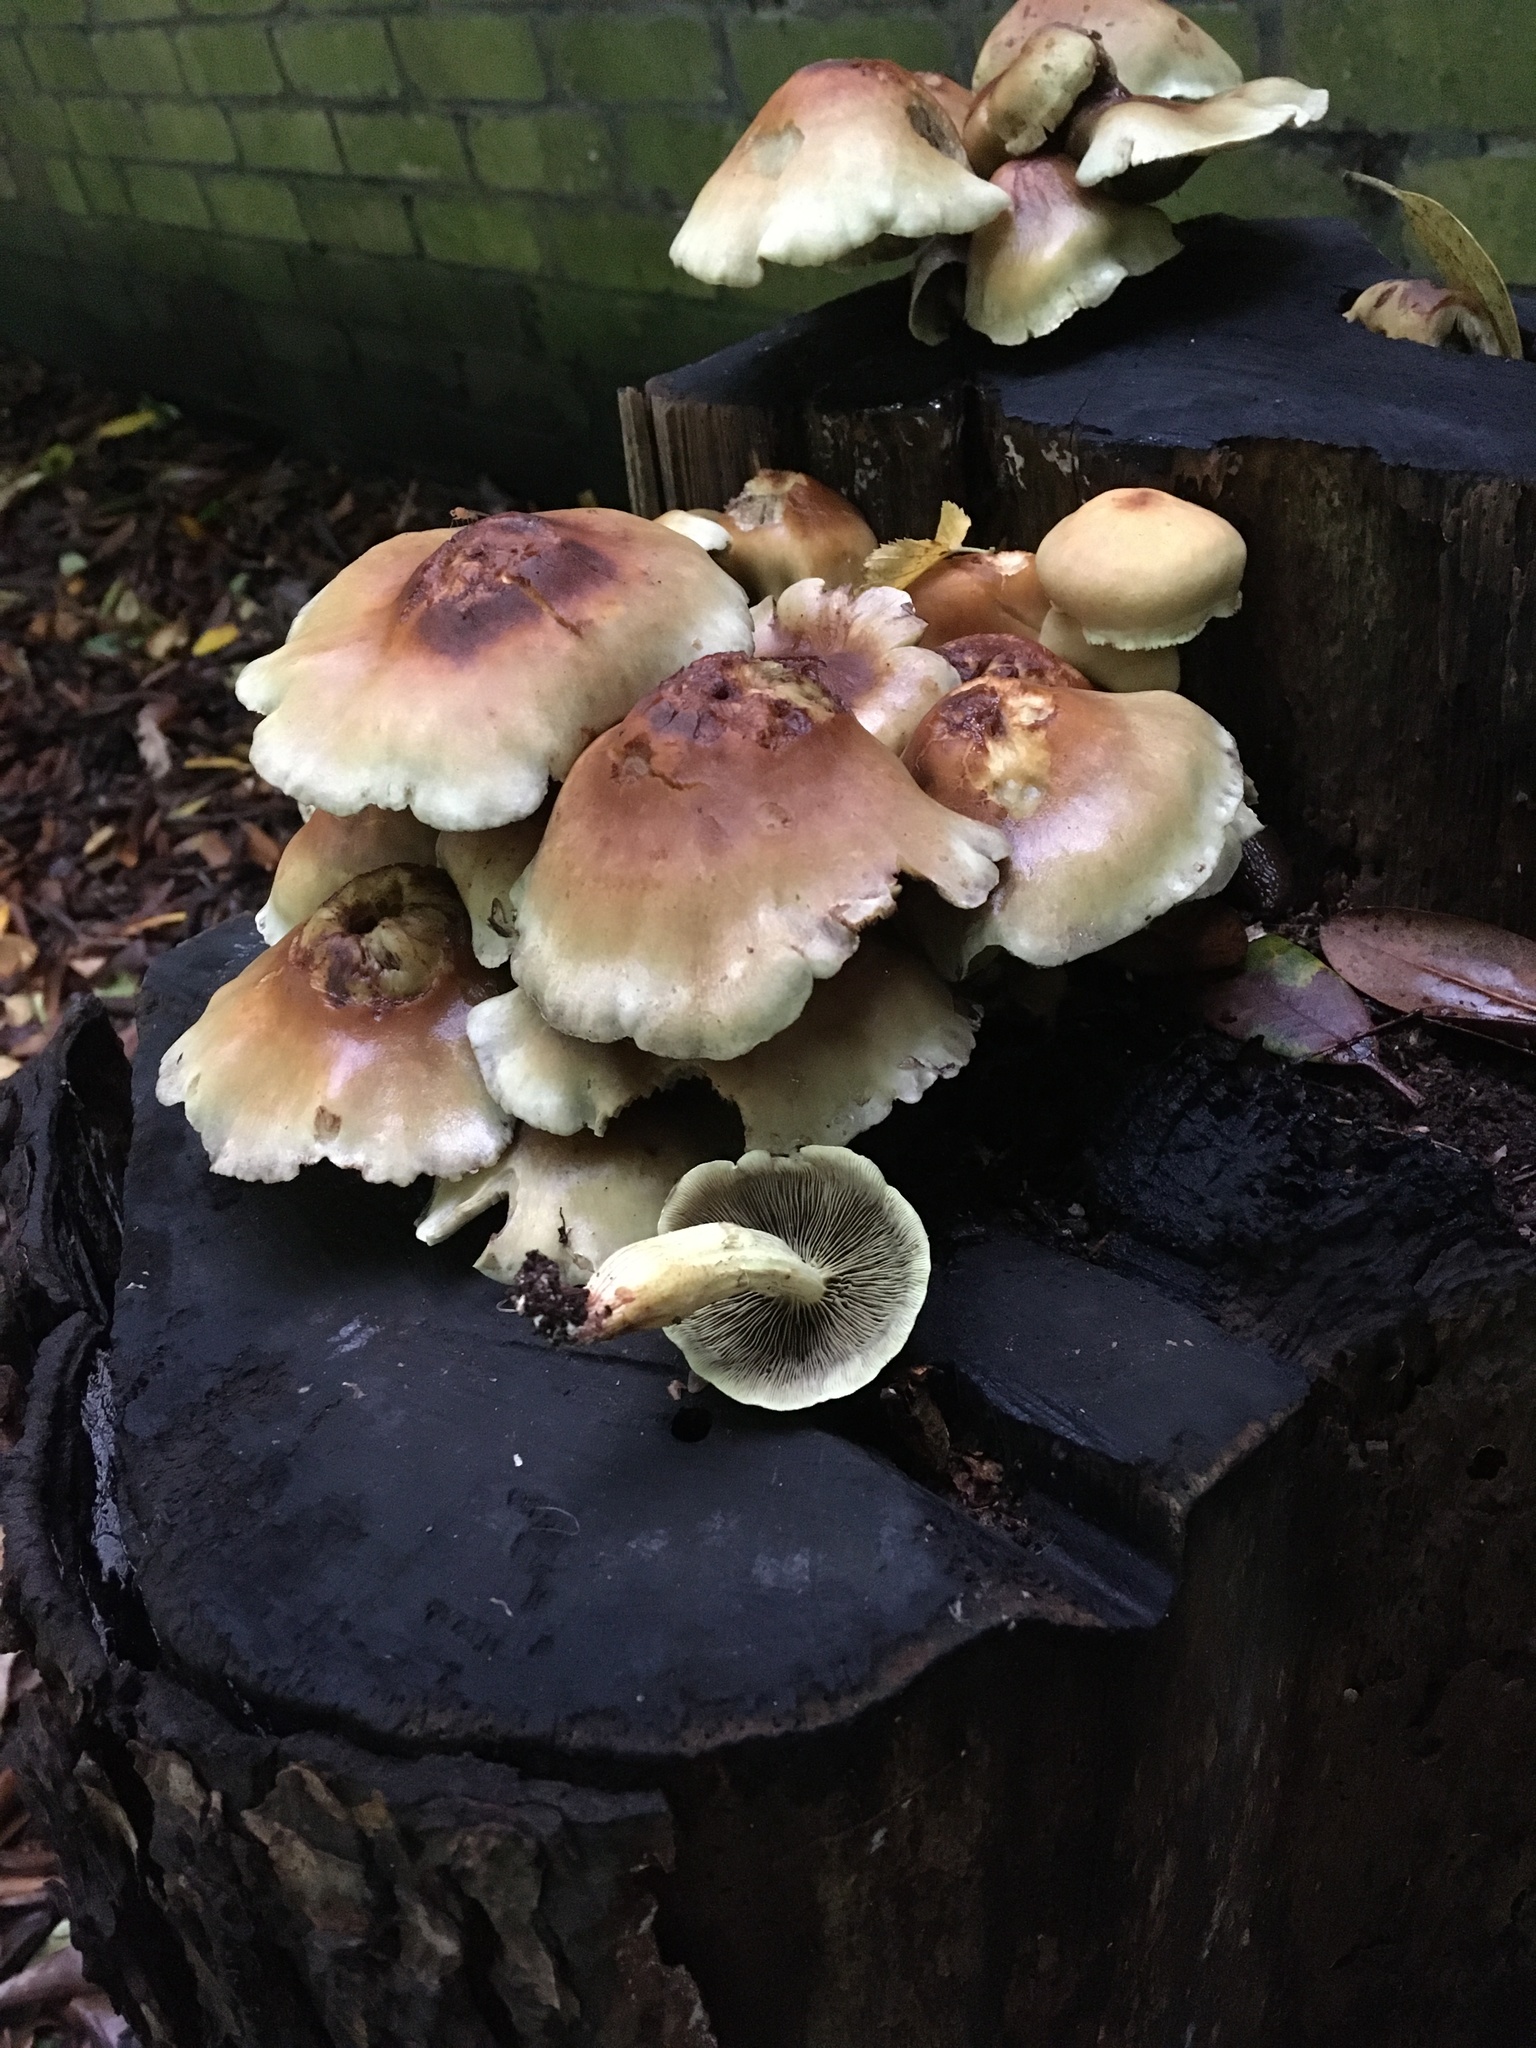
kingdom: Fungi
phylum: Basidiomycota
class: Agaricomycetes
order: Agaricales
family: Strophariaceae
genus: Hypholoma
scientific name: Hypholoma fasciculare
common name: Sulphur tuft
